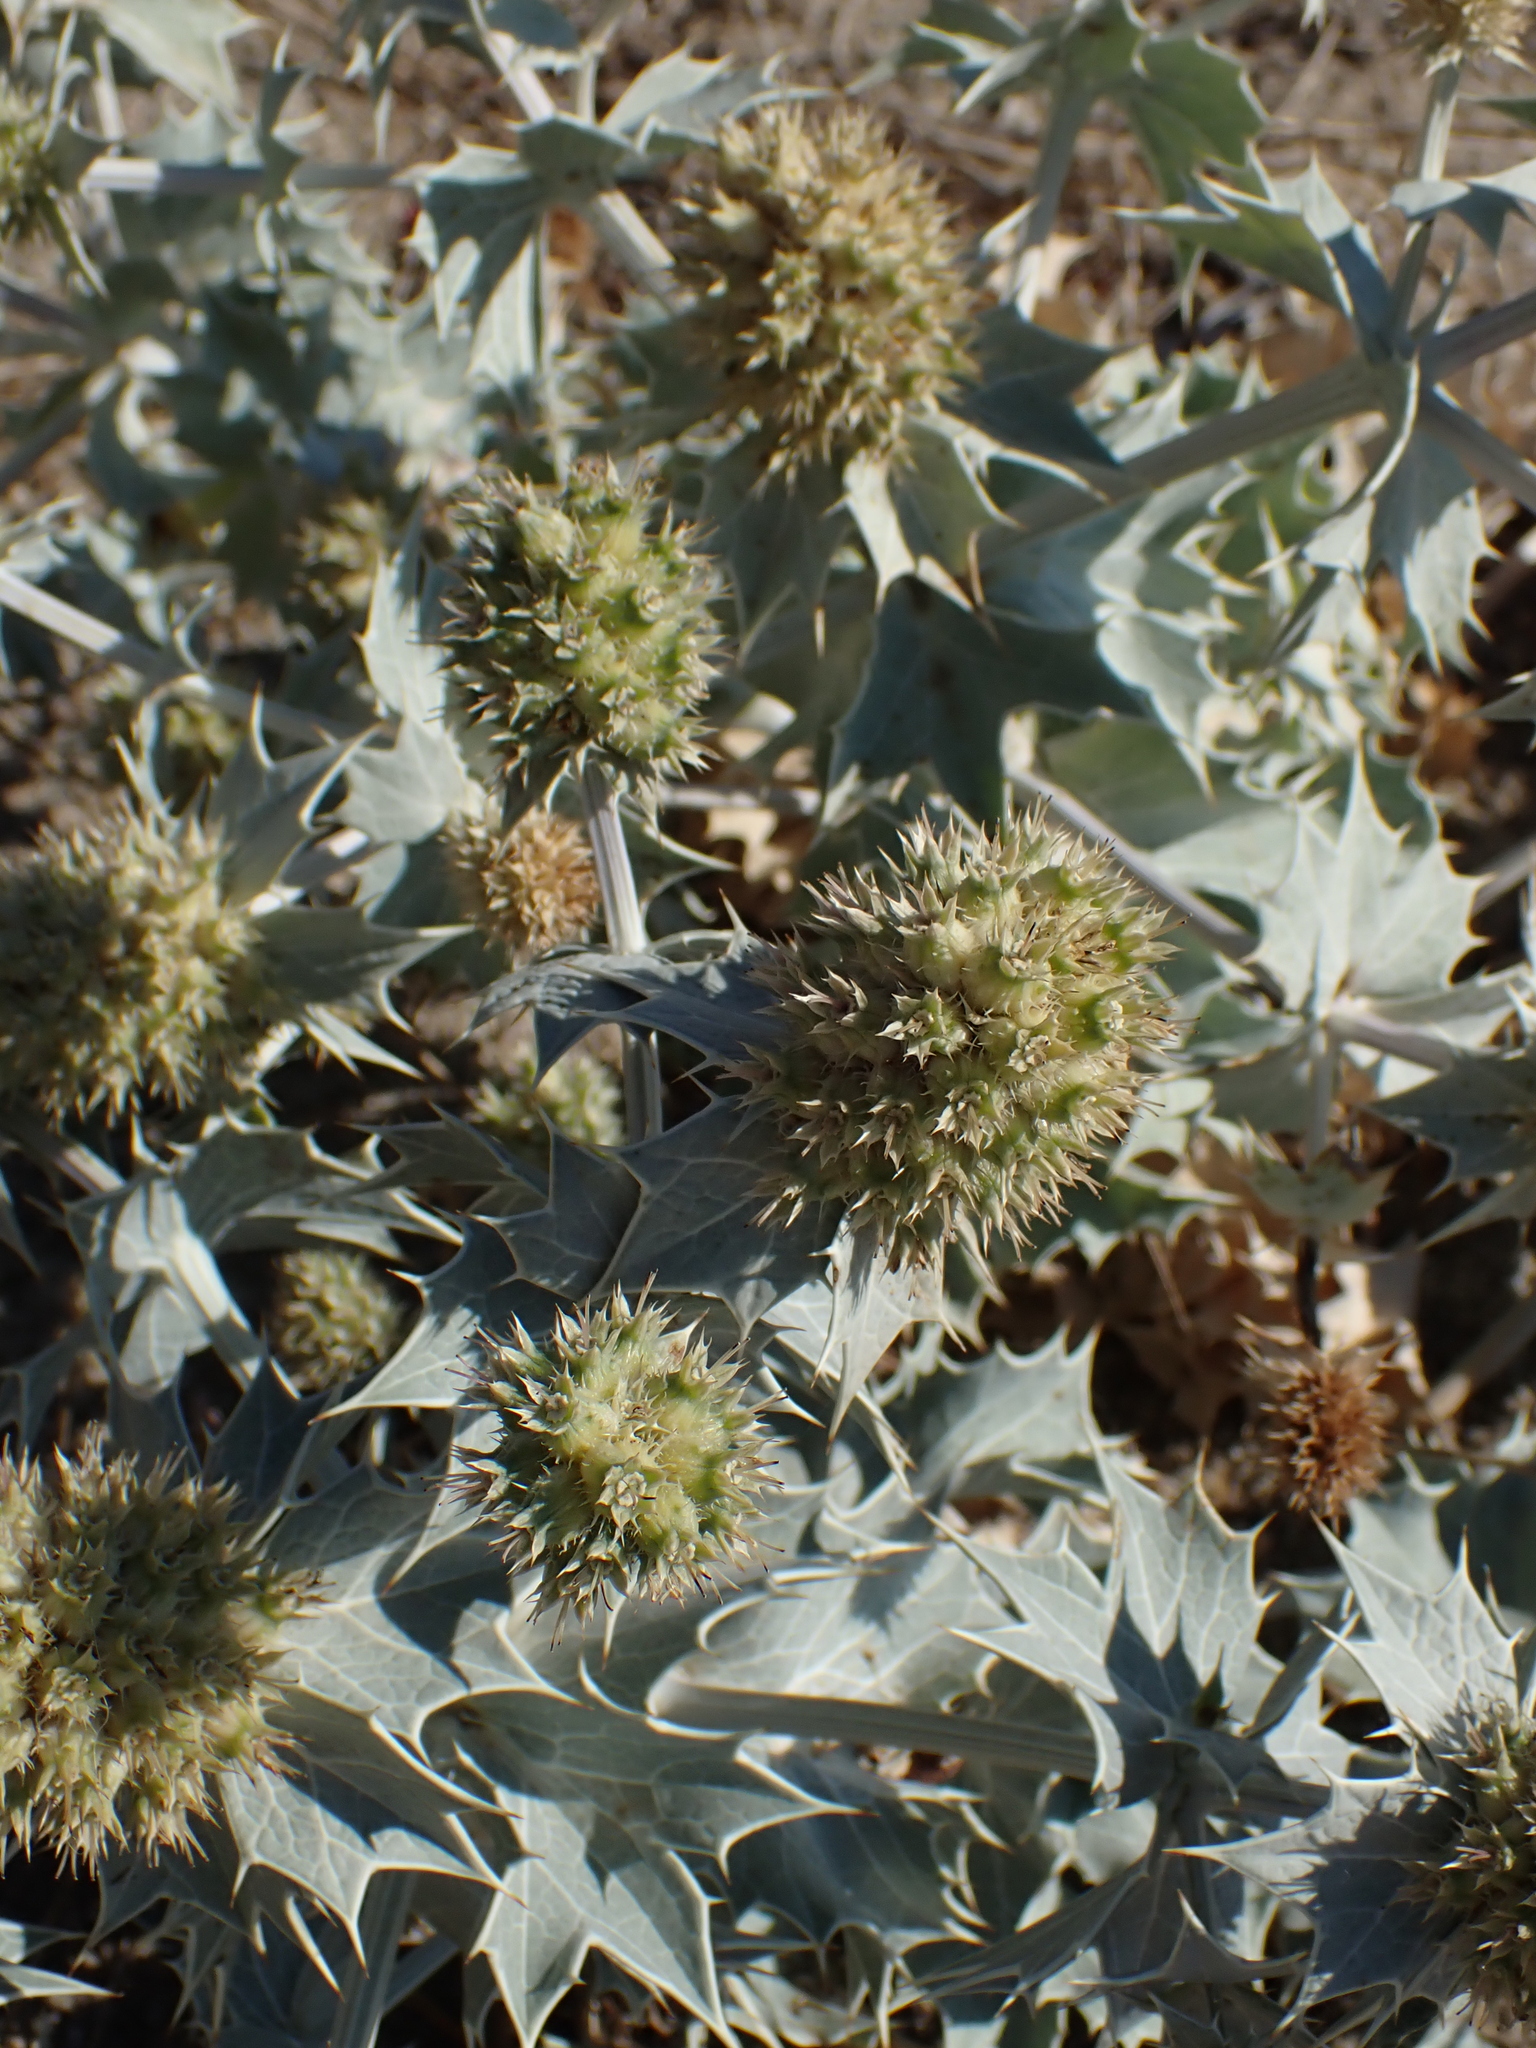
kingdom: Plantae
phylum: Tracheophyta
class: Magnoliopsida
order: Apiales
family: Apiaceae
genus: Eryngium
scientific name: Eryngium maritimum
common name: Sea-holly
